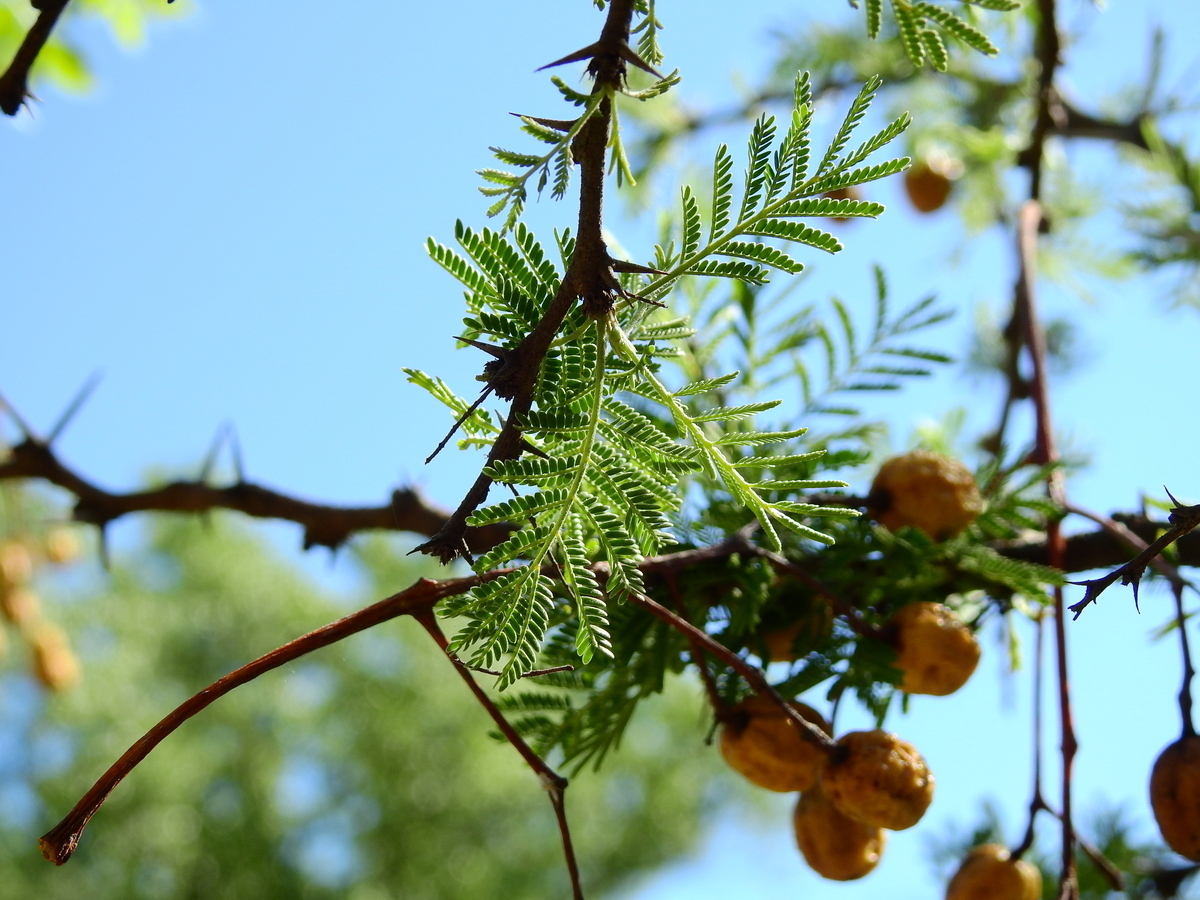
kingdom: Plantae
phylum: Tracheophyta
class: Magnoliopsida
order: Fabales
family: Fabaceae
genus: Vachellia
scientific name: Vachellia caven
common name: Roman cassie
